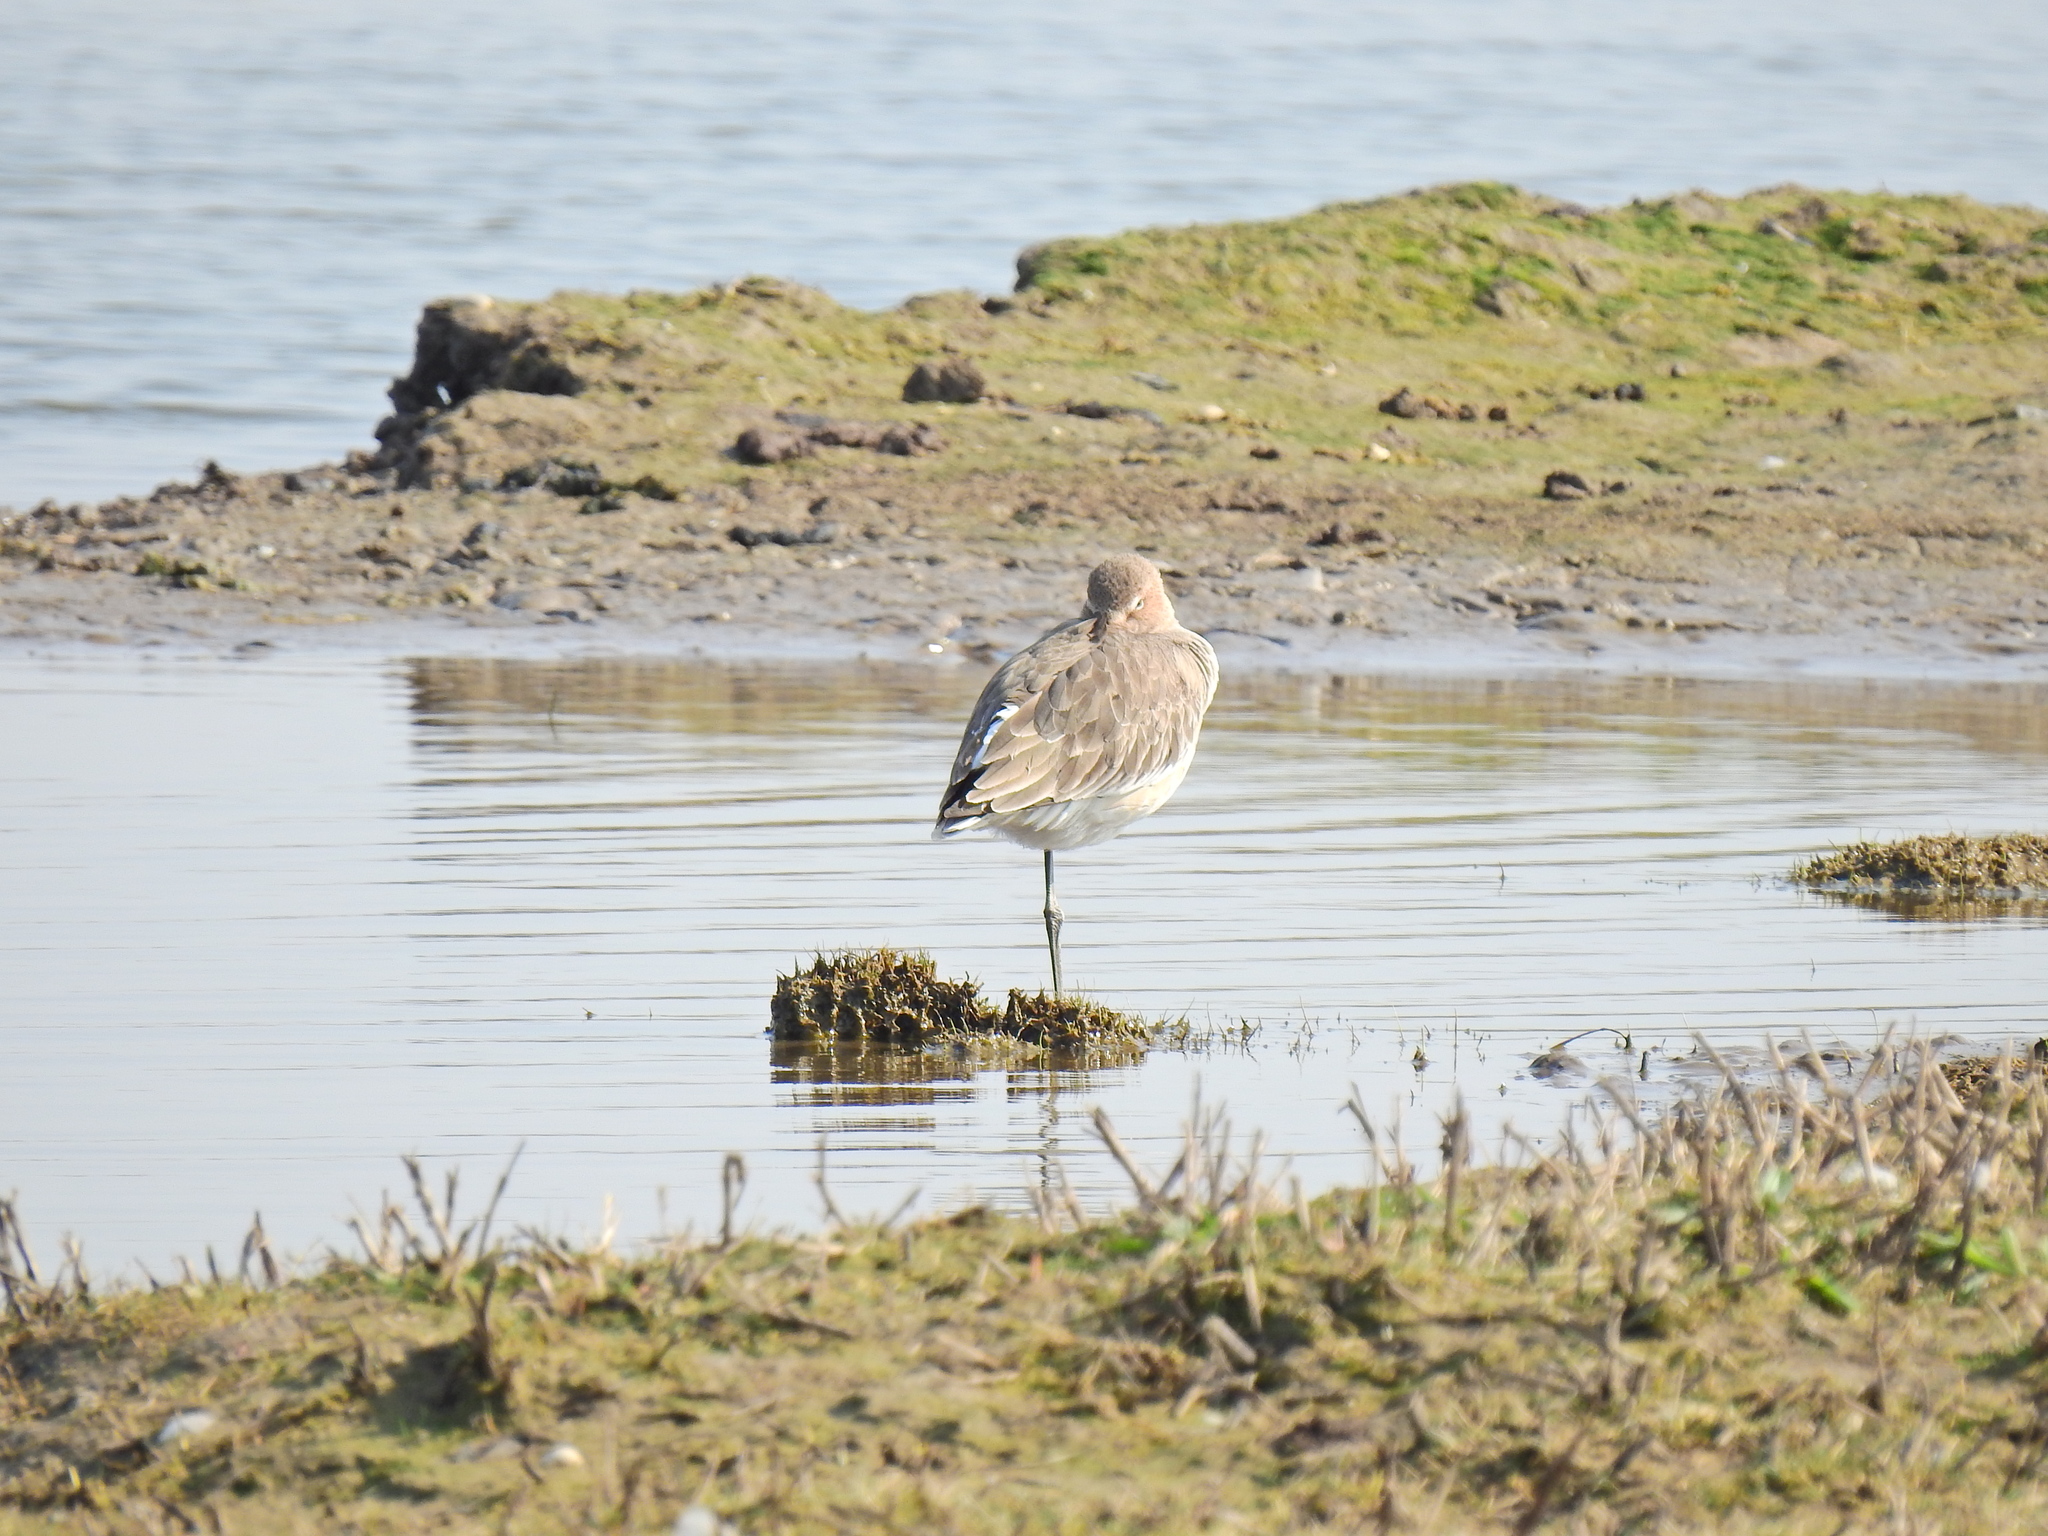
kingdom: Animalia
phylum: Chordata
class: Aves
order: Charadriiformes
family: Scolopacidae
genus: Limosa
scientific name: Limosa limosa
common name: Black-tailed godwit
